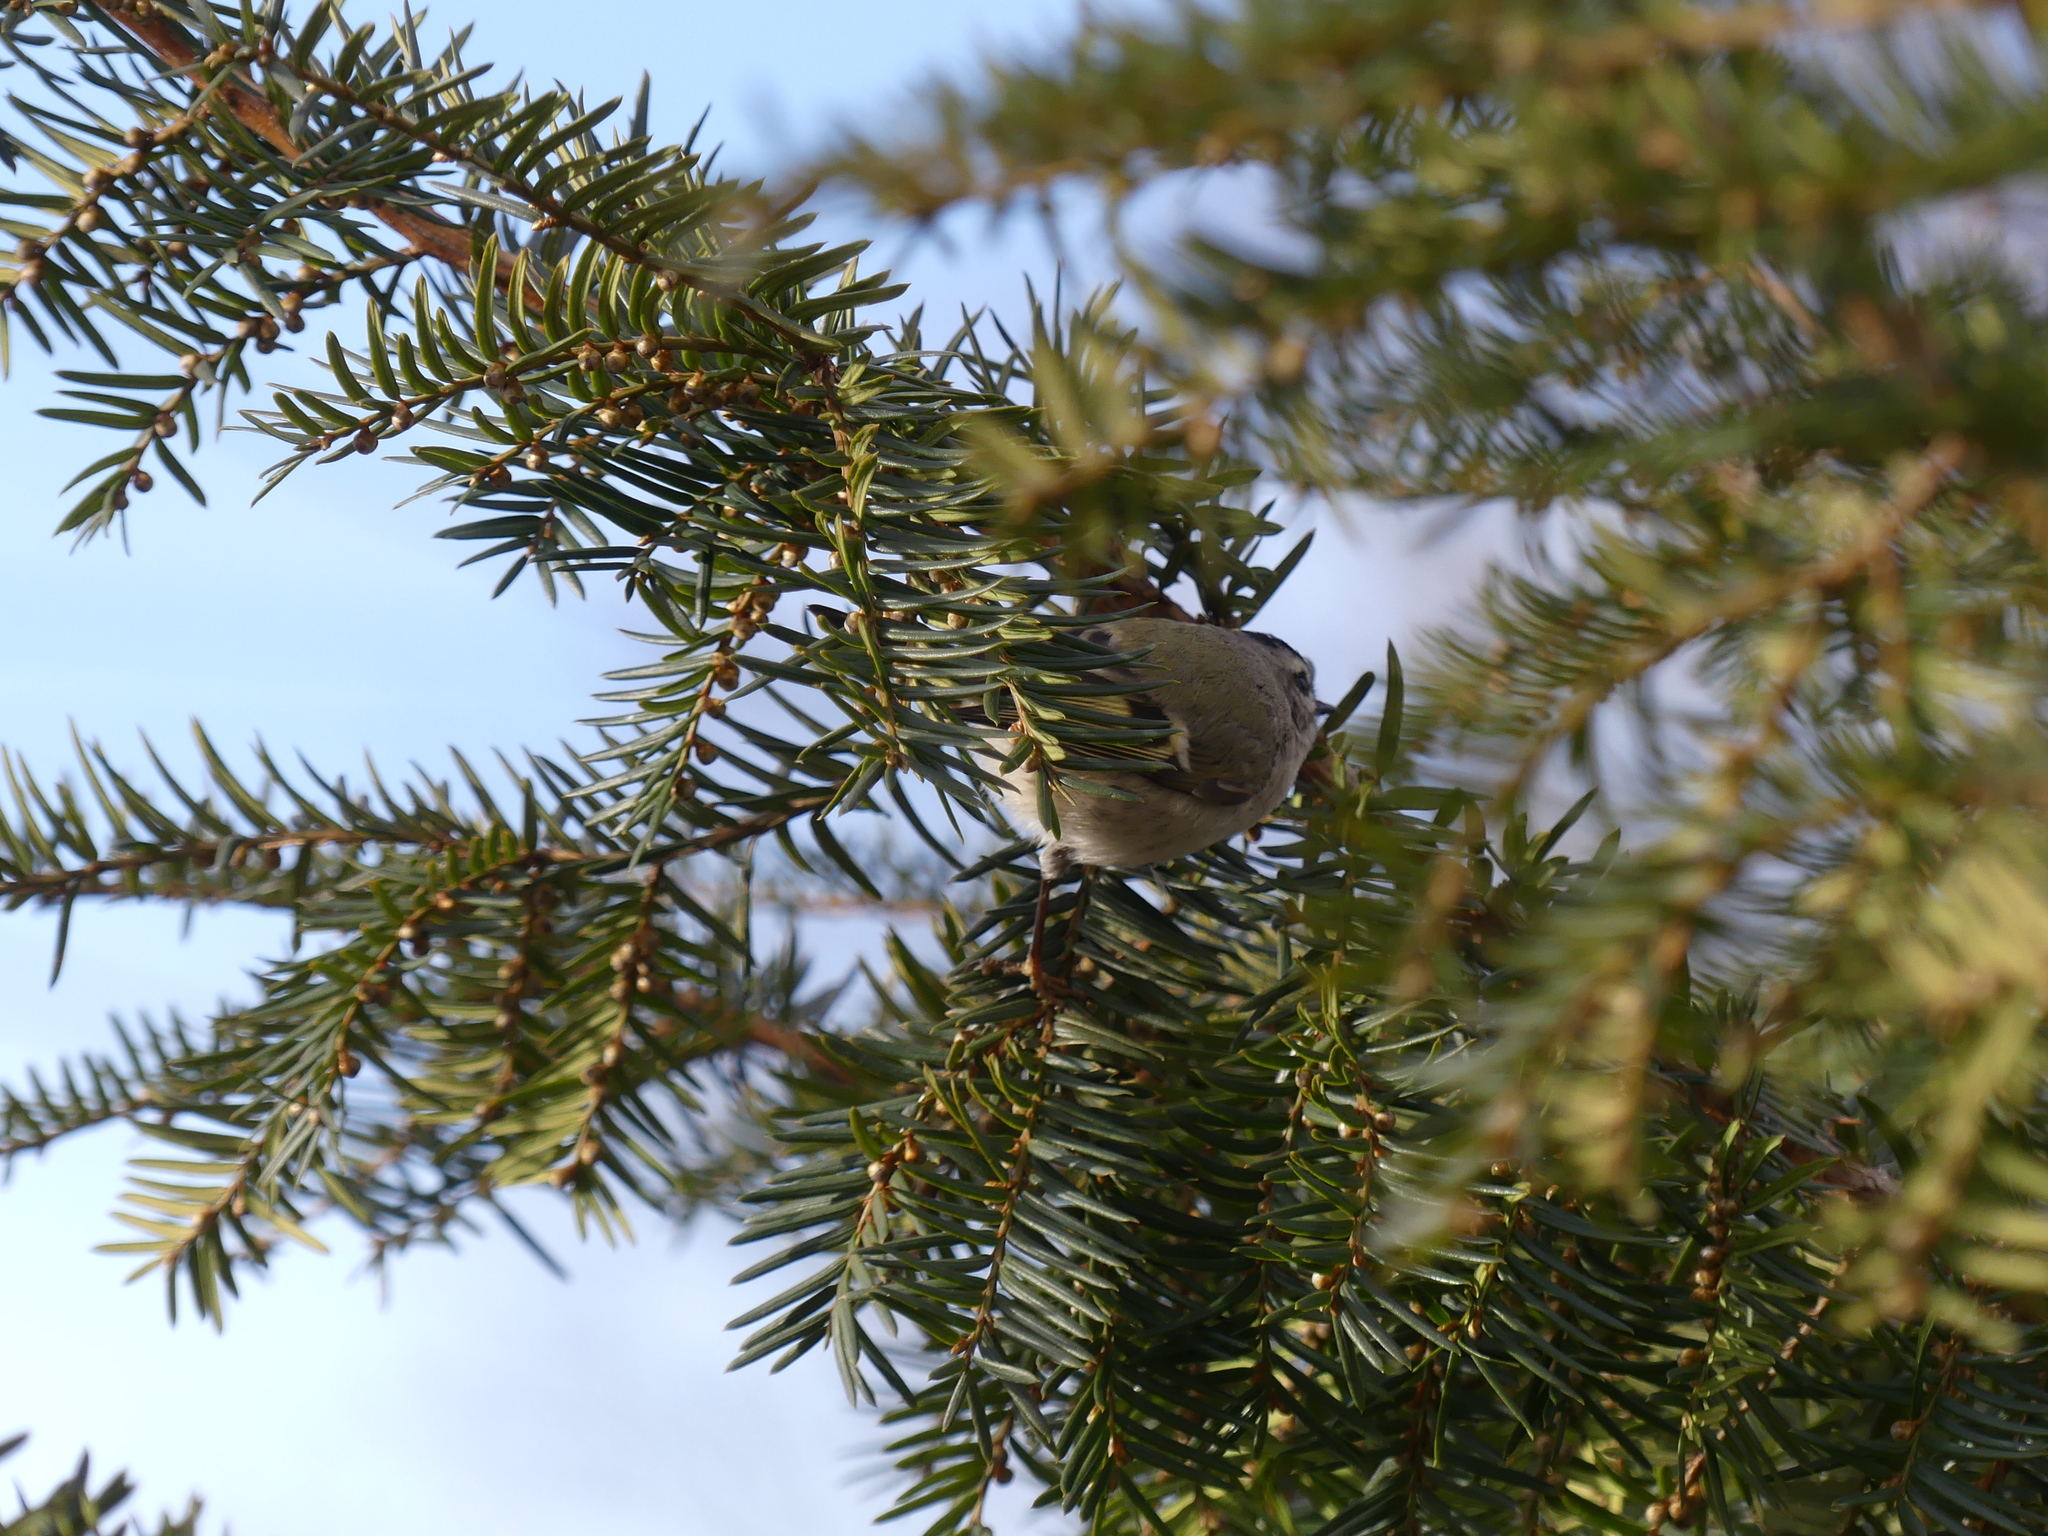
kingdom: Animalia
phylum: Chordata
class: Aves
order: Passeriformes
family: Regulidae
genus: Regulus
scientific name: Regulus satrapa
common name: Golden-crowned kinglet
